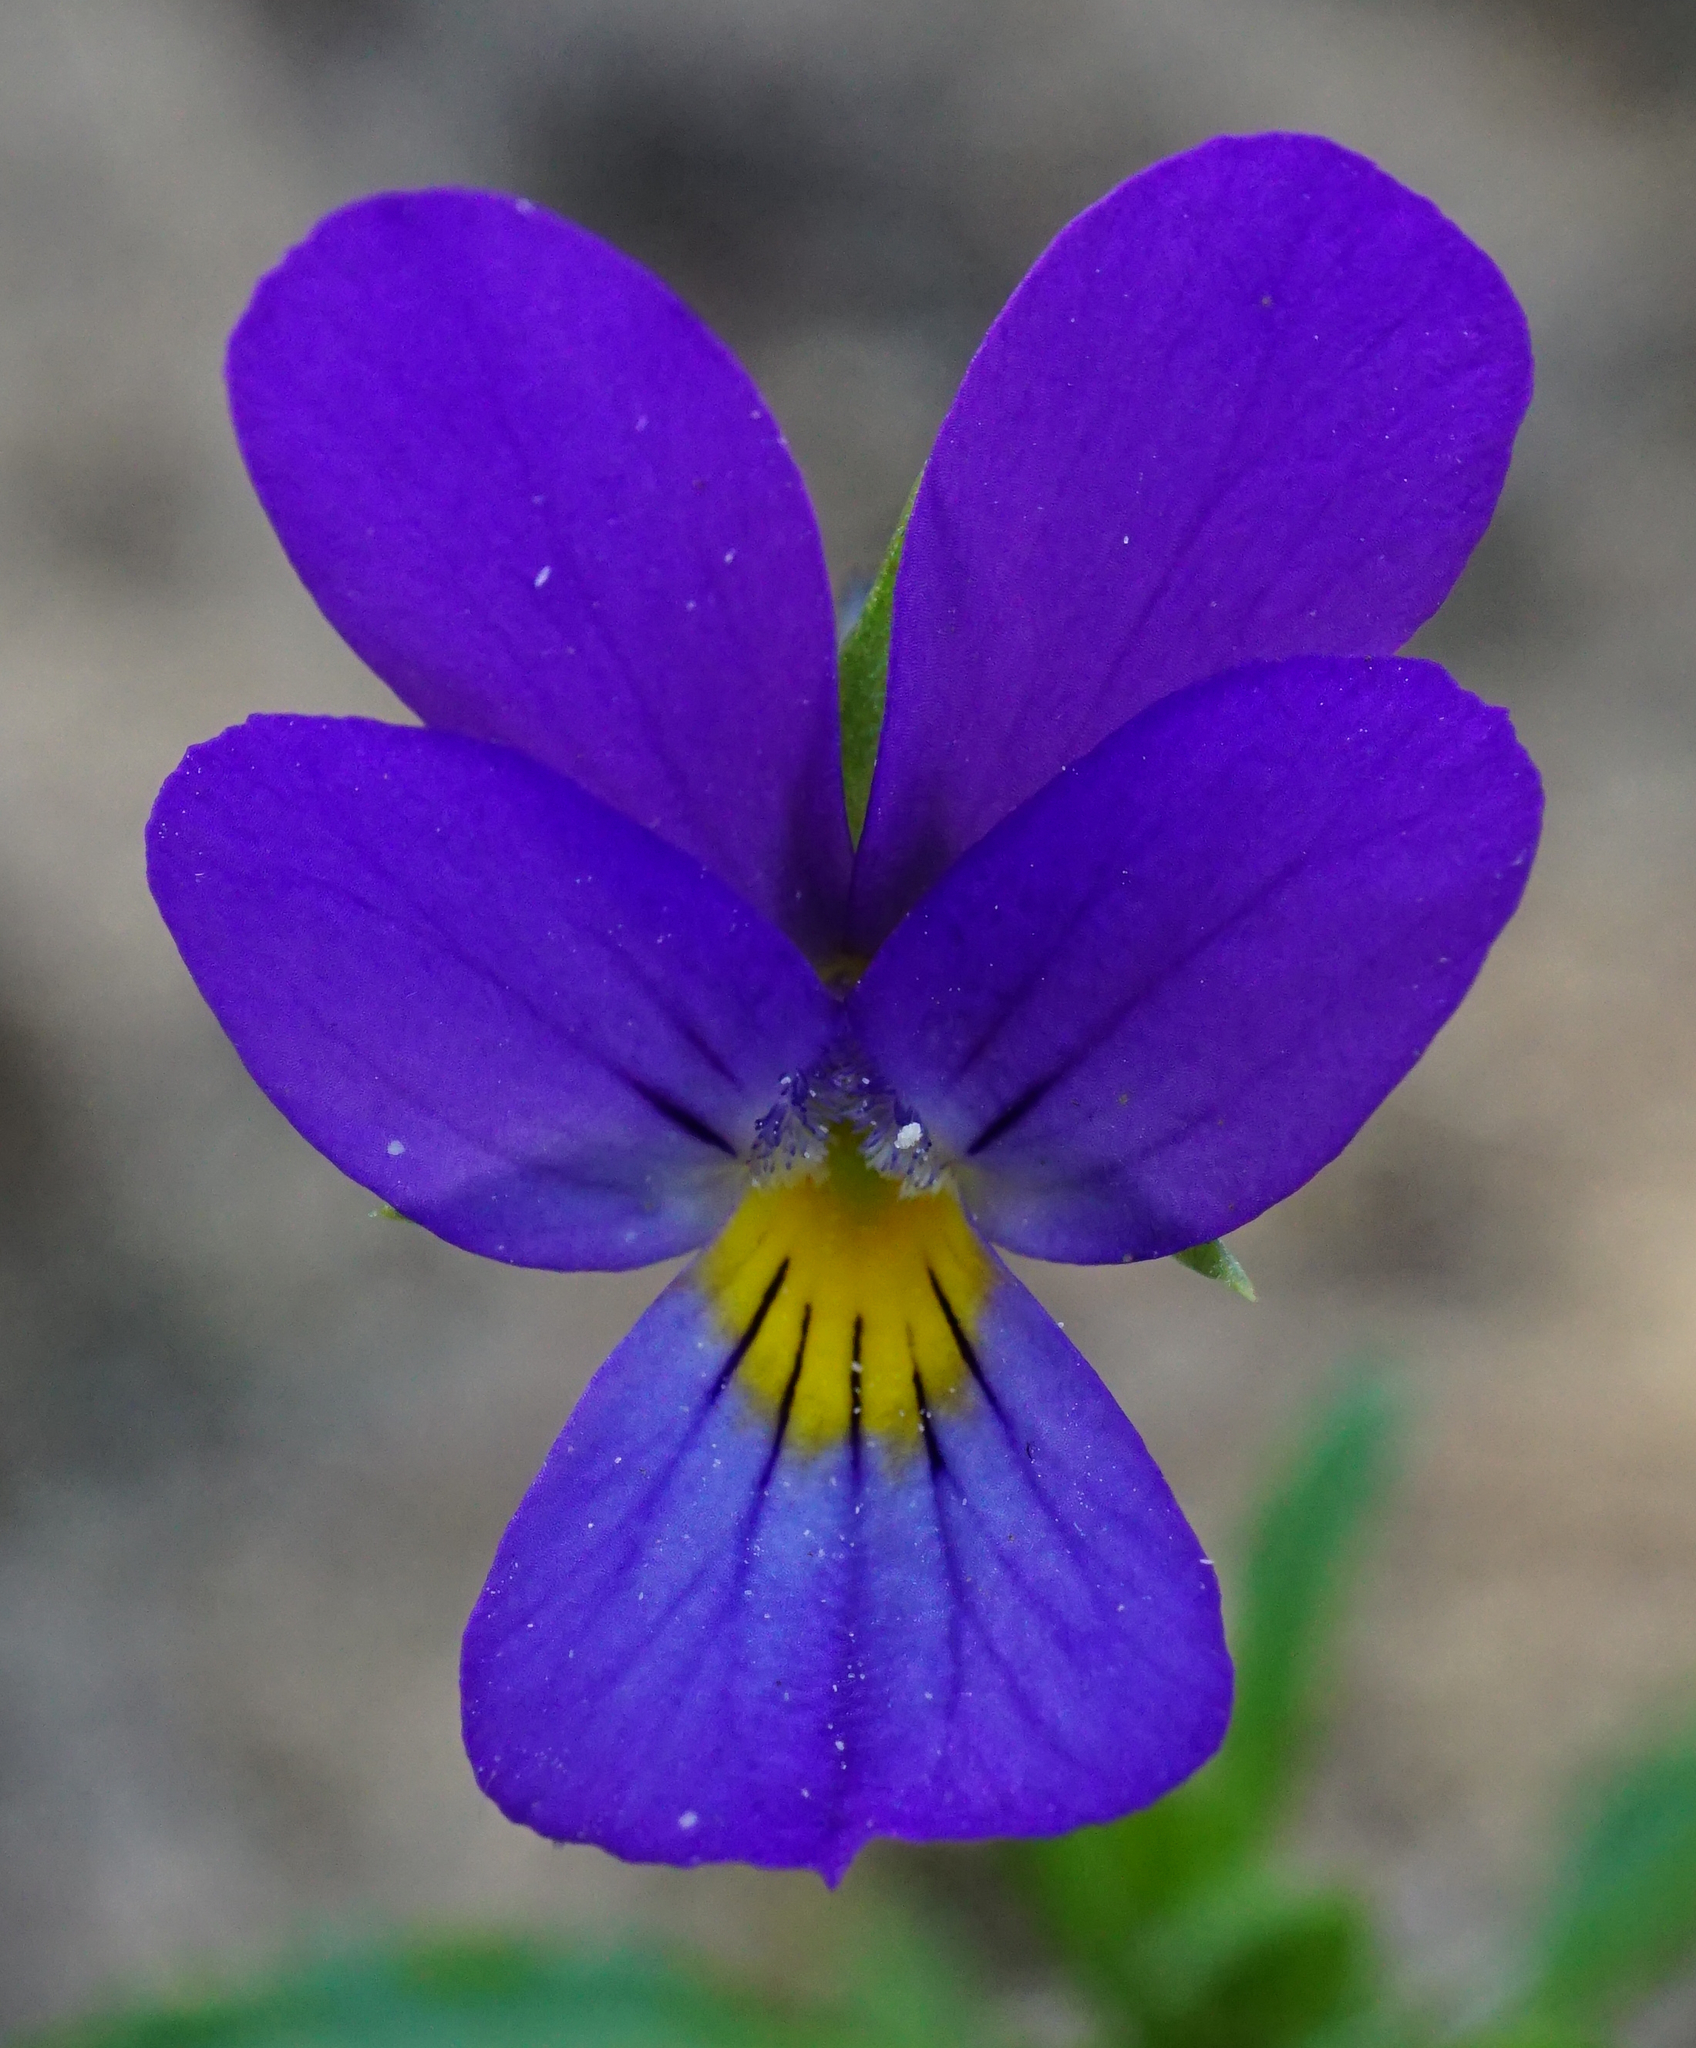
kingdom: Plantae
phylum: Tracheophyta
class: Magnoliopsida
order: Malpighiales
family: Violaceae
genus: Viola
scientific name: Viola tricolor
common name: Pansy
